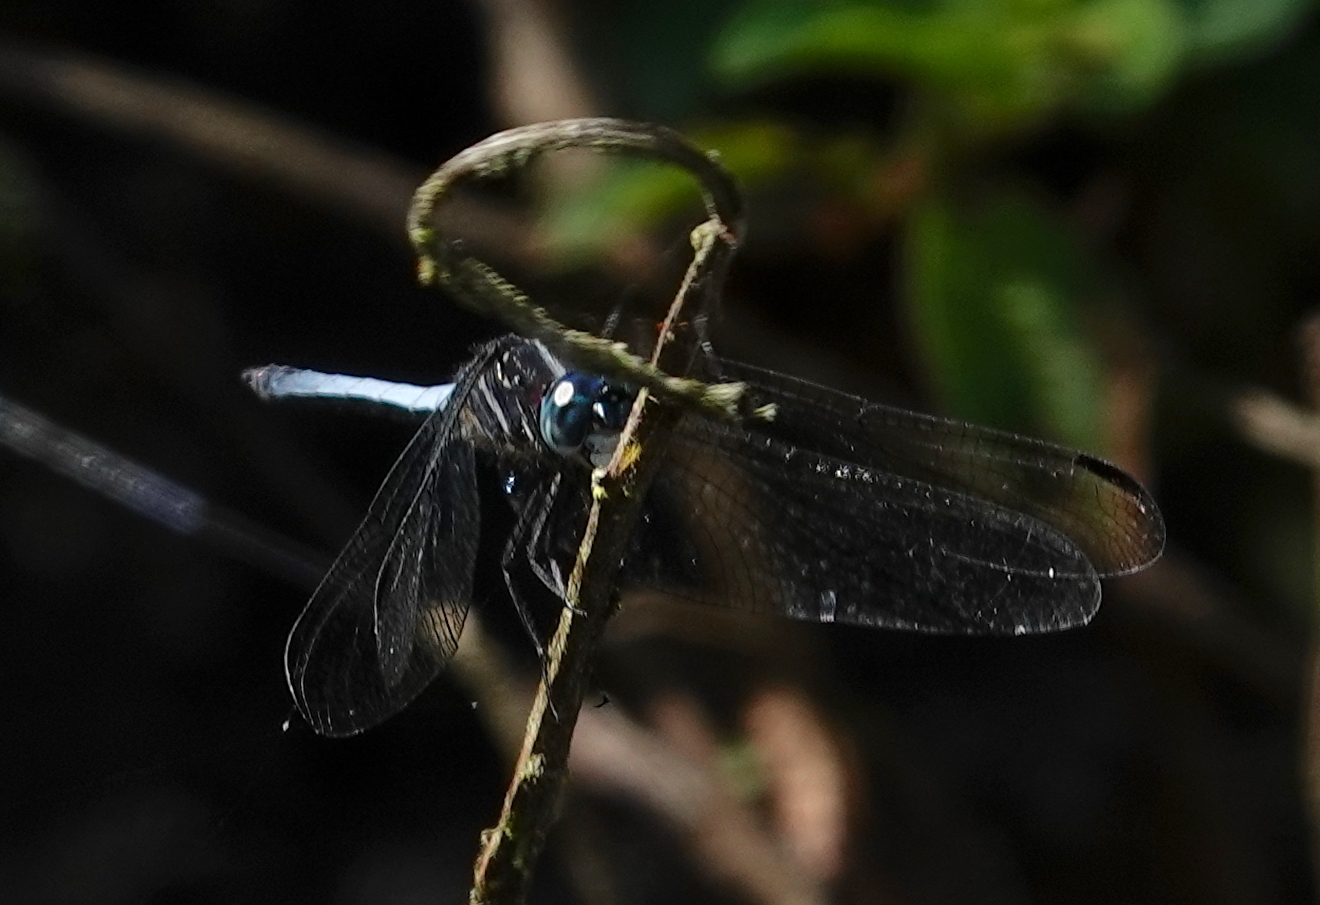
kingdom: Animalia
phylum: Arthropoda
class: Insecta
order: Odonata
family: Libellulidae
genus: Cannaphila
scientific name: Cannaphila vibex
